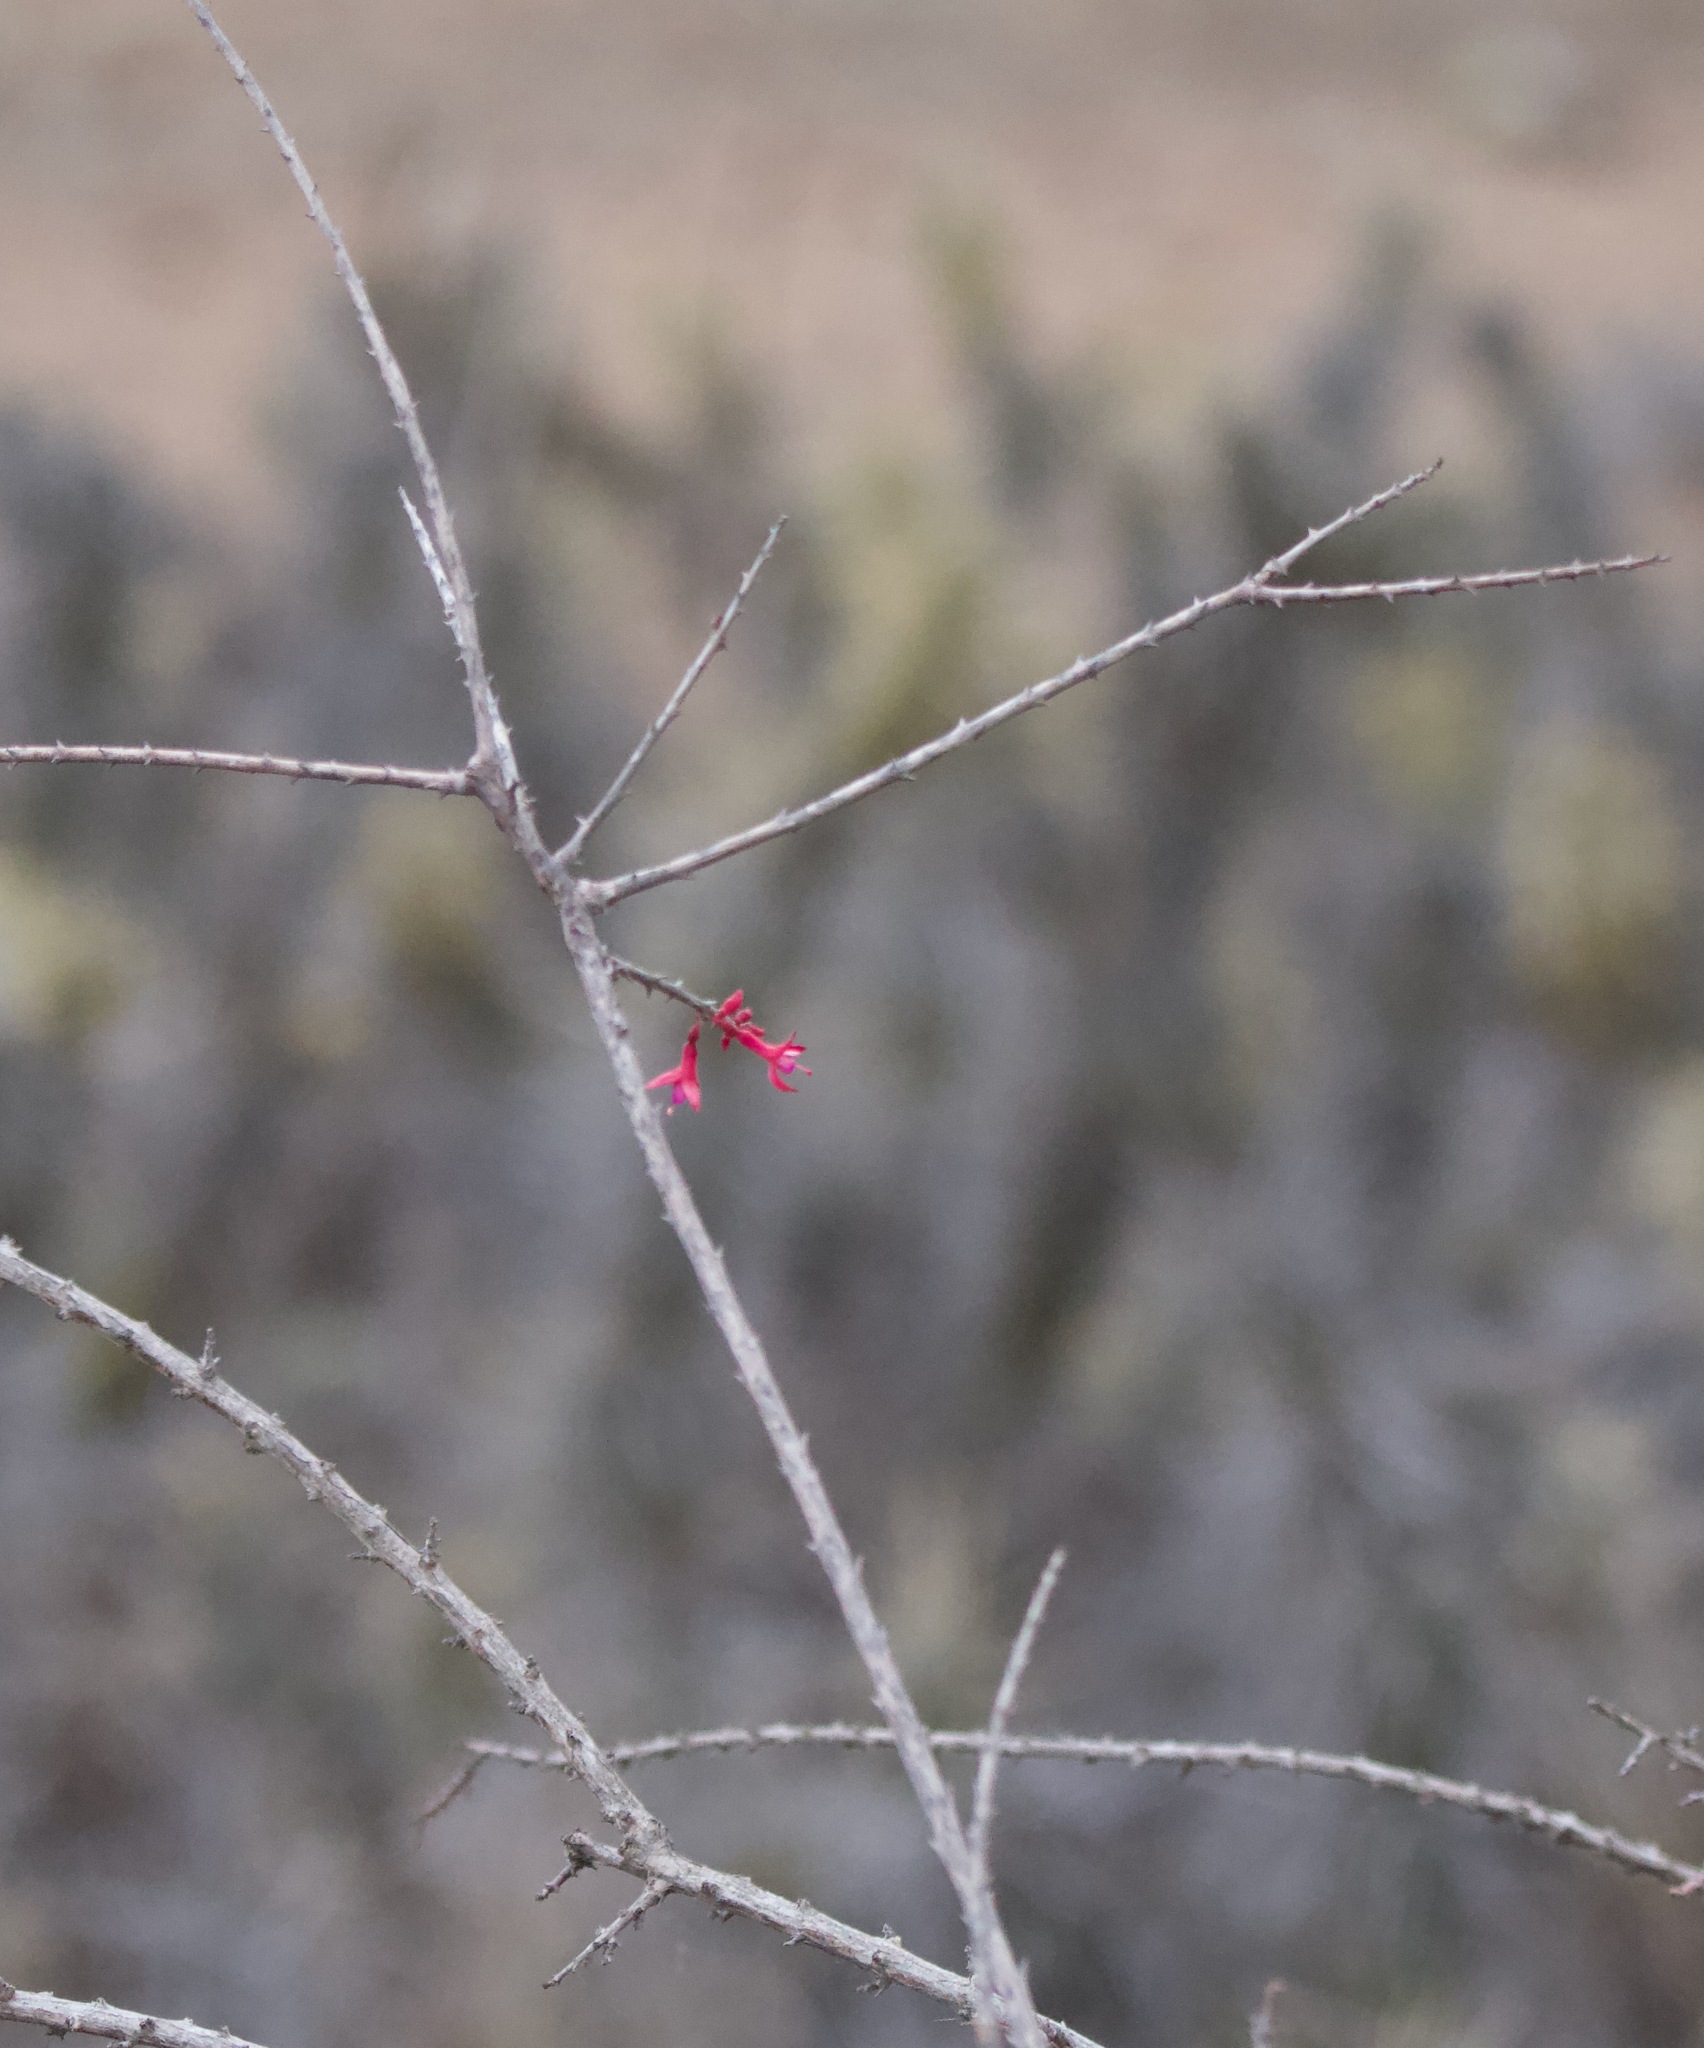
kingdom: Plantae
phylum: Tracheophyta
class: Magnoliopsida
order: Myrtales
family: Onagraceae
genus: Fuchsia
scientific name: Fuchsia lycioides
